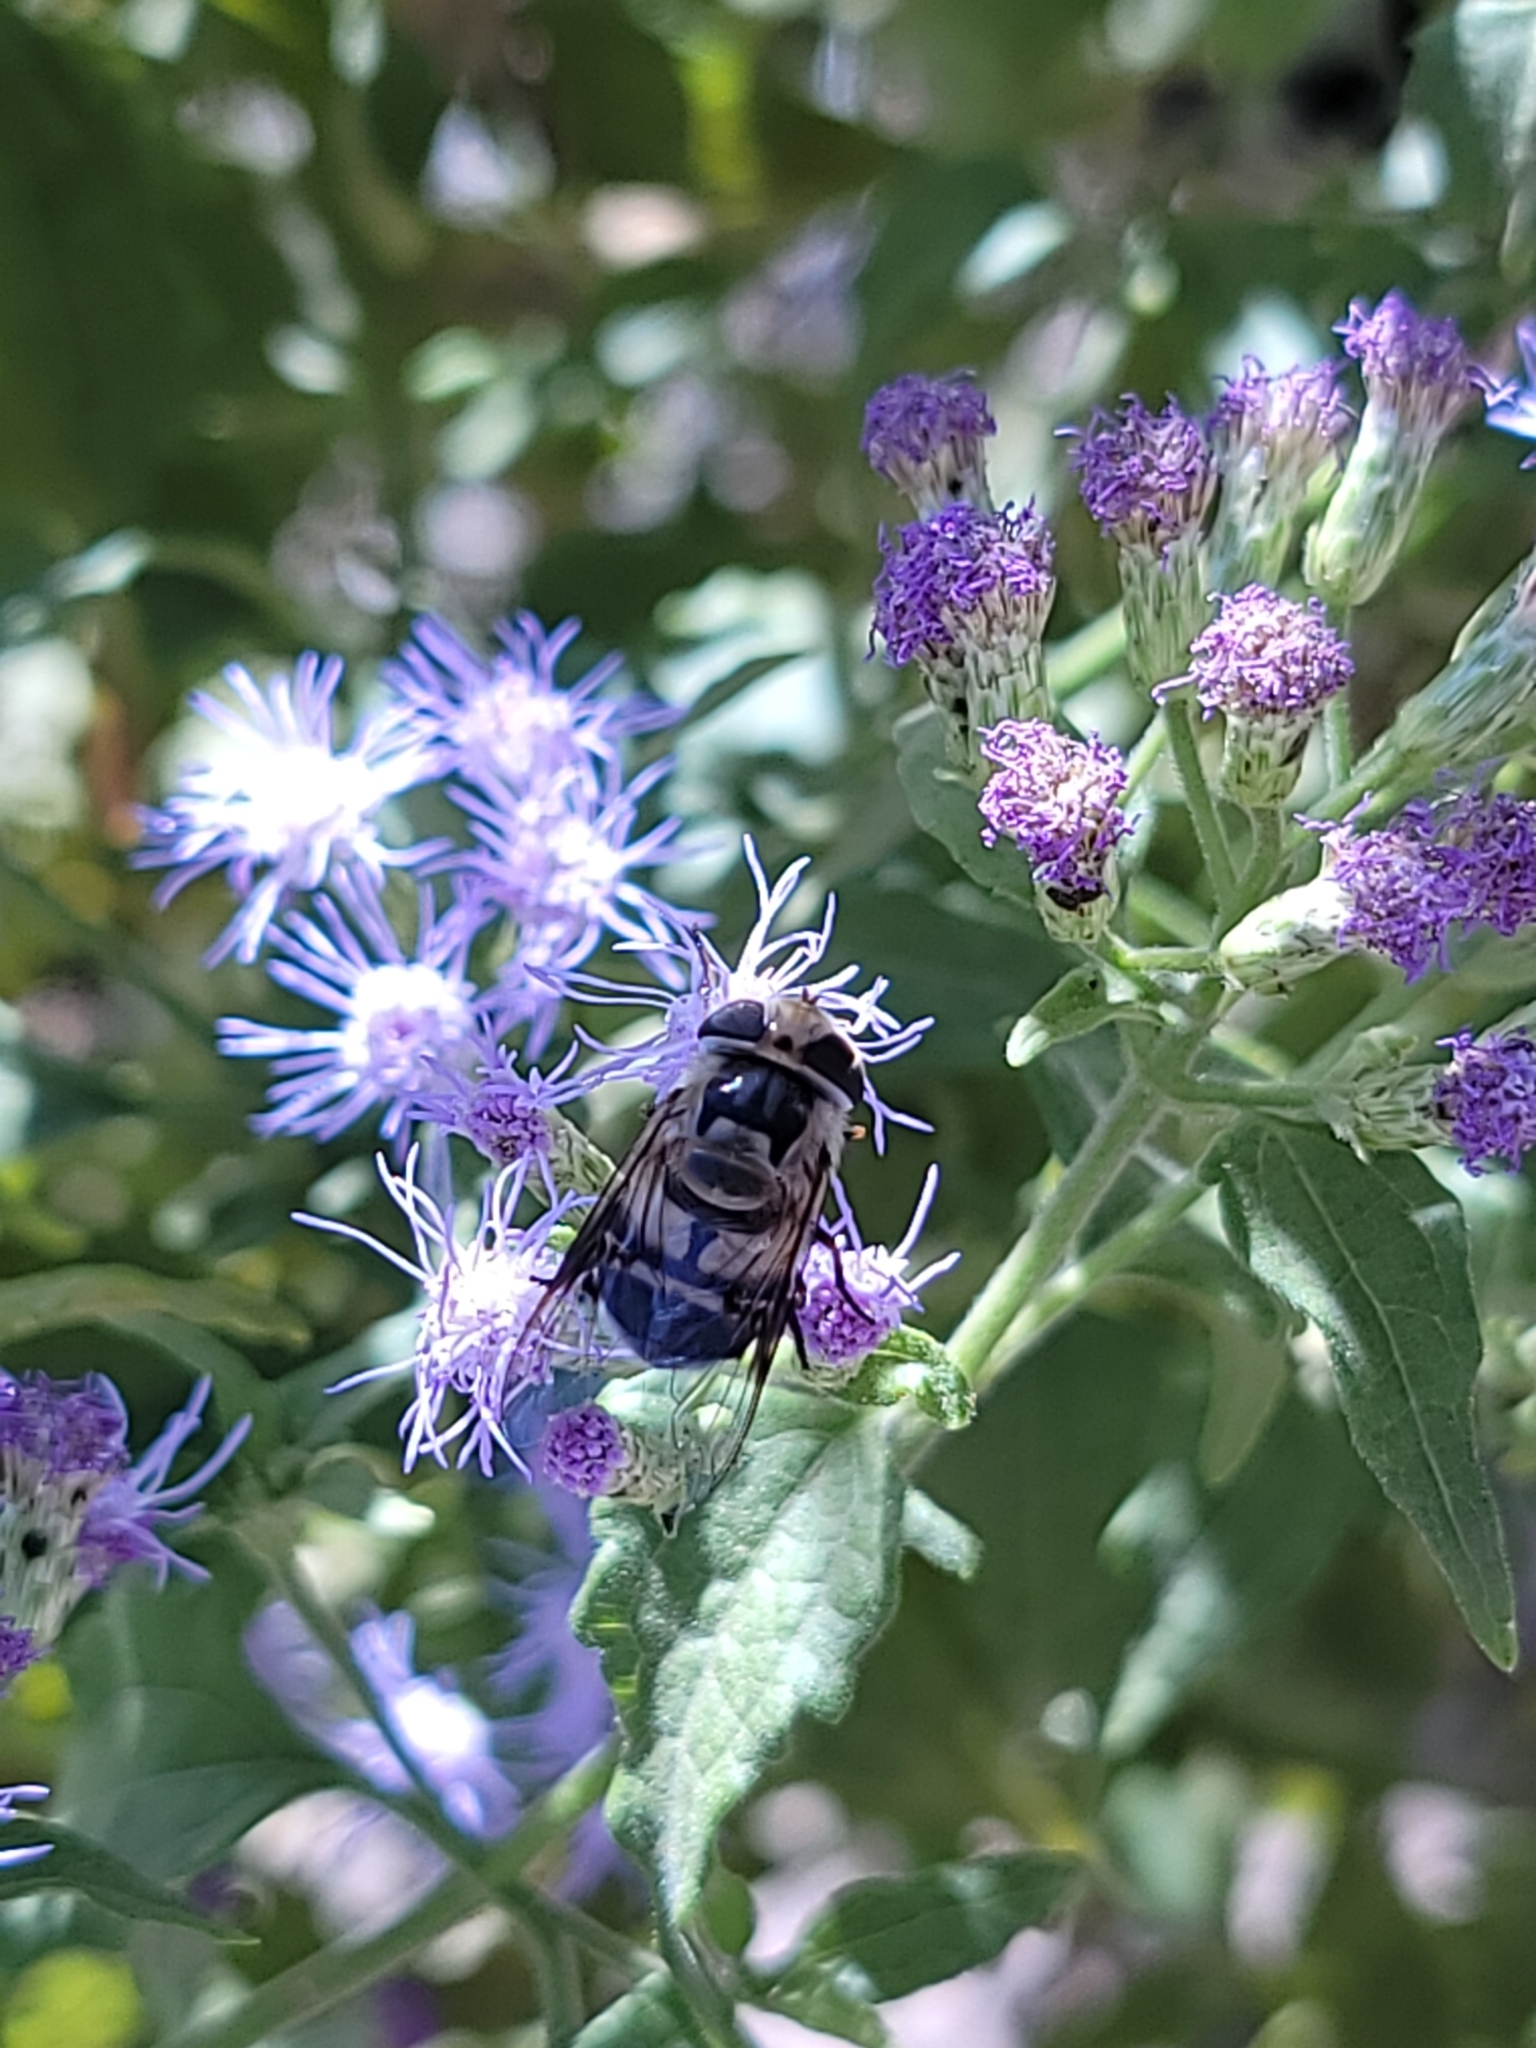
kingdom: Animalia
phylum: Arthropoda
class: Insecta
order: Diptera
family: Syrphidae
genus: Copestylum
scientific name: Copestylum apiciferum
